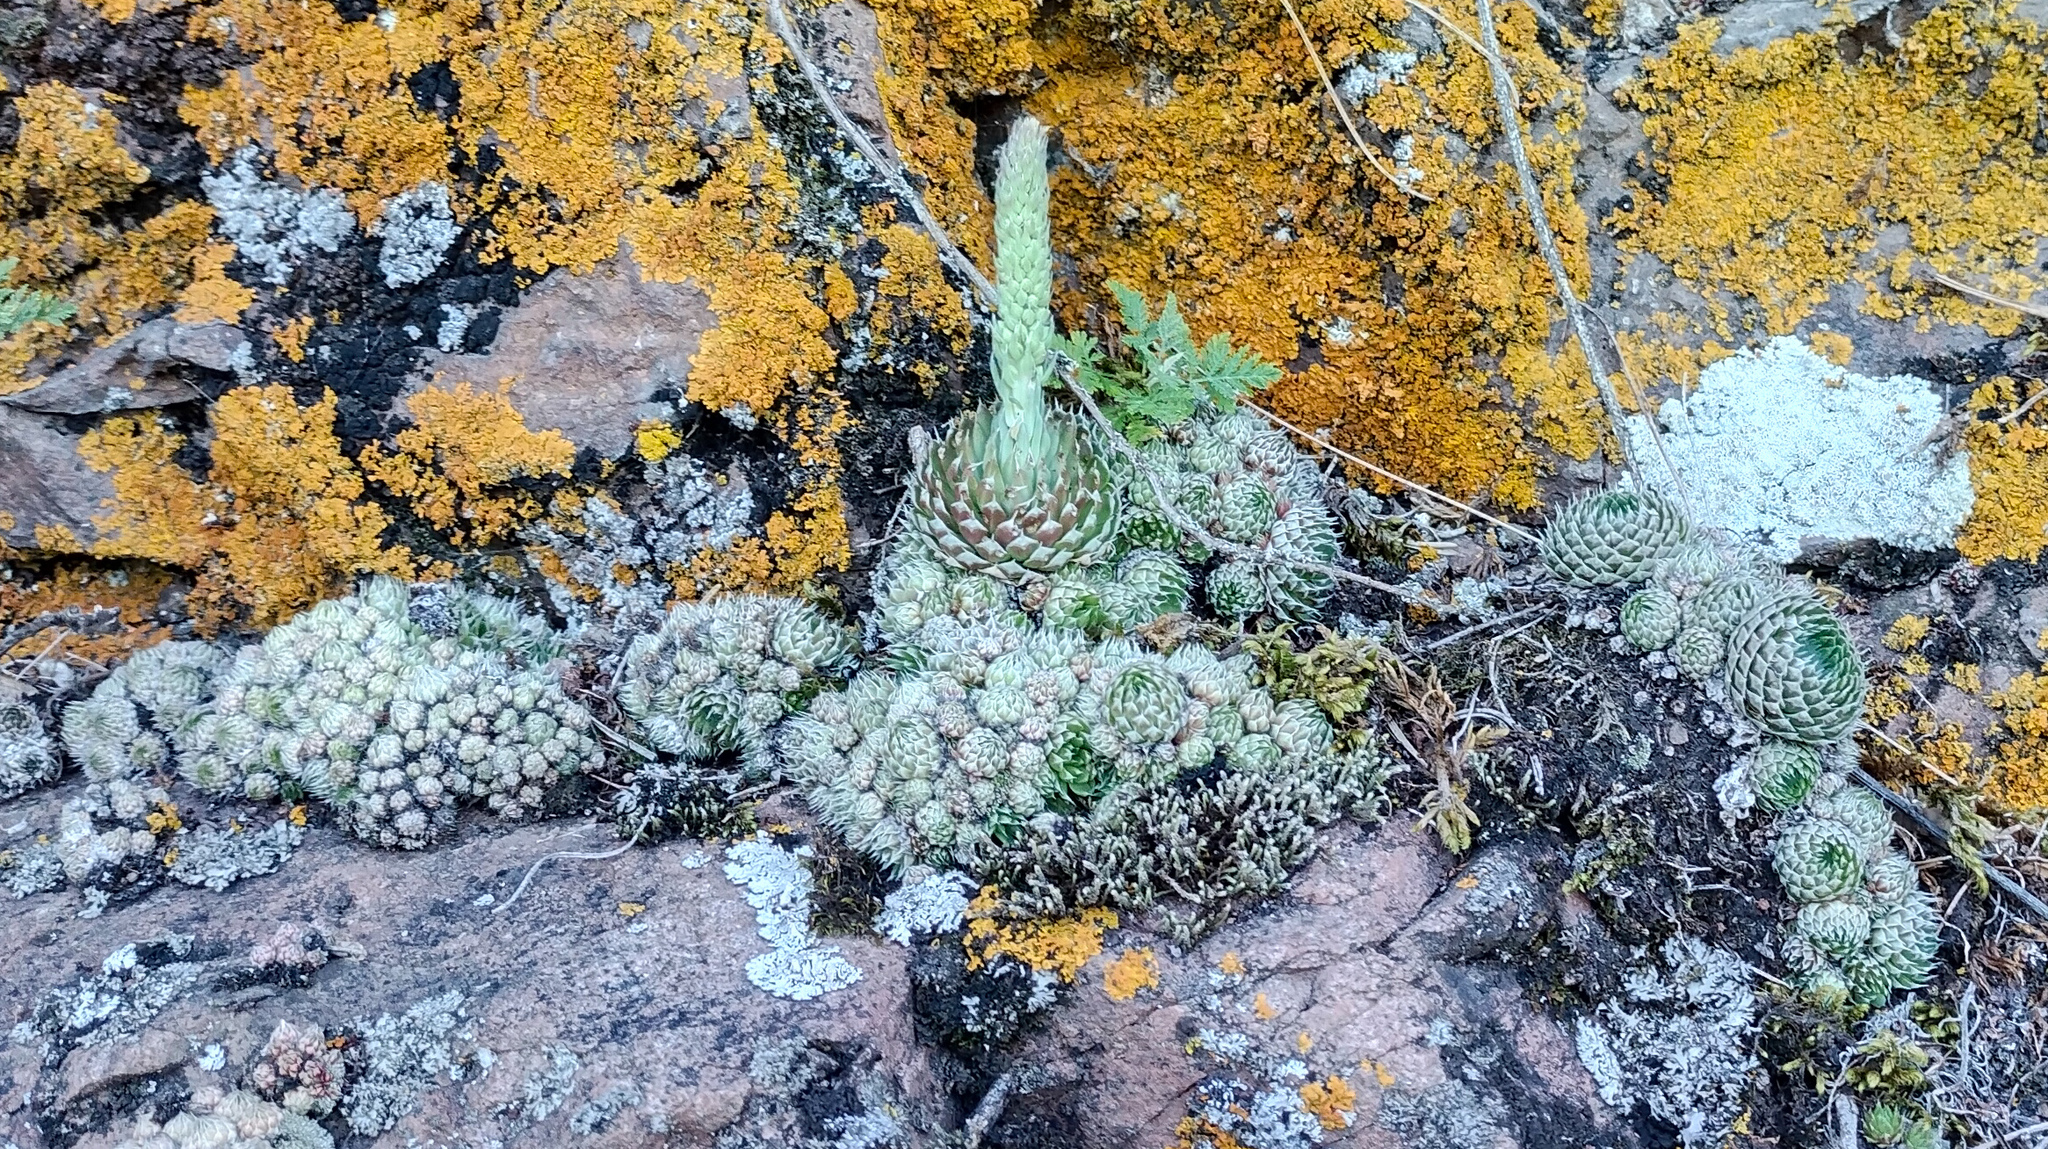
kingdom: Plantae
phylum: Tracheophyta
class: Magnoliopsida
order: Saxifragales
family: Crassulaceae
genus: Orostachys
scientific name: Orostachys spinosa
